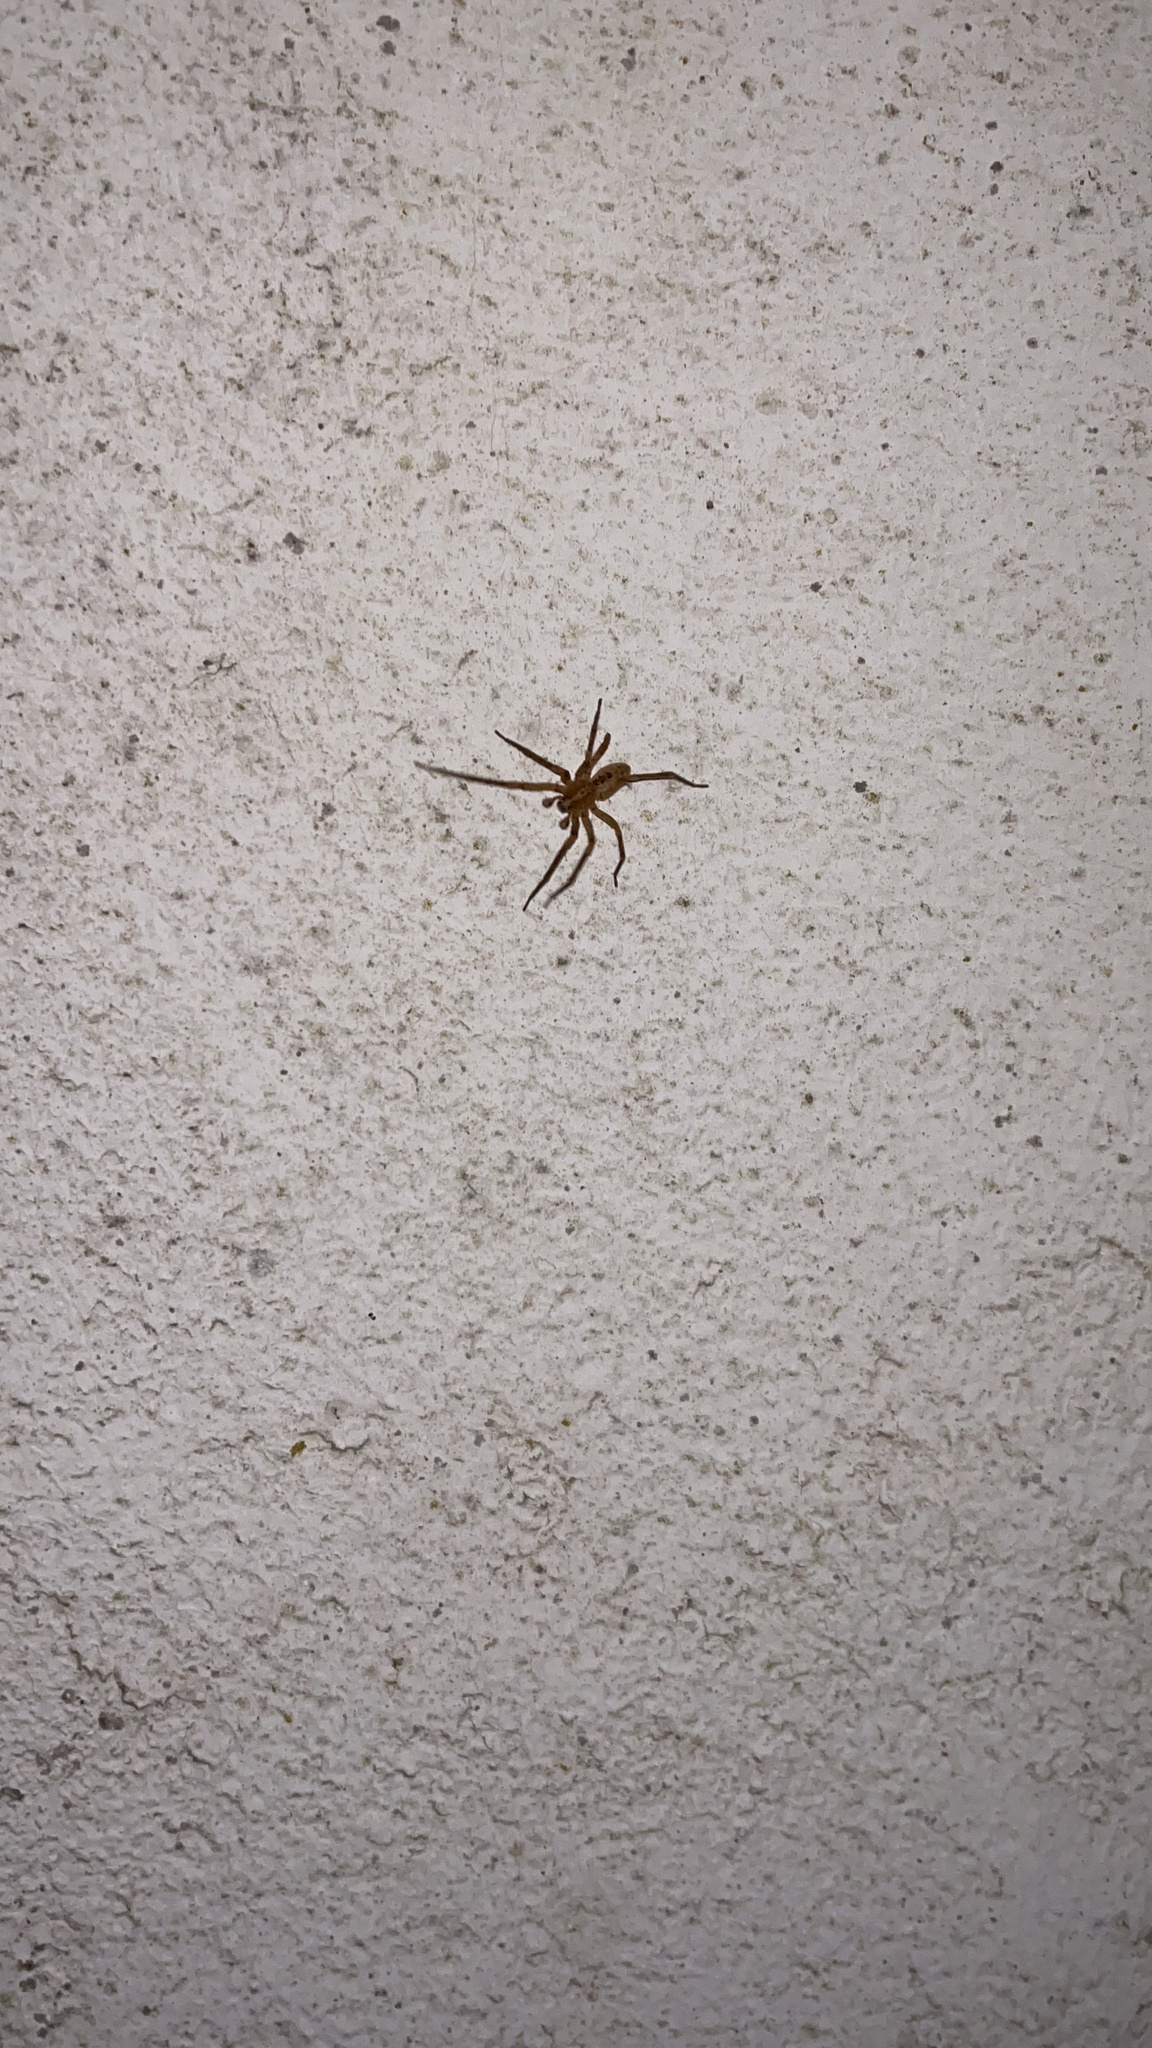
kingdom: Animalia
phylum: Arthropoda
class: Arachnida
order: Araneae
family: Zoropsidae
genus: Zoropsis
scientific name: Zoropsis spinimana
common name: Zoropsid spider
